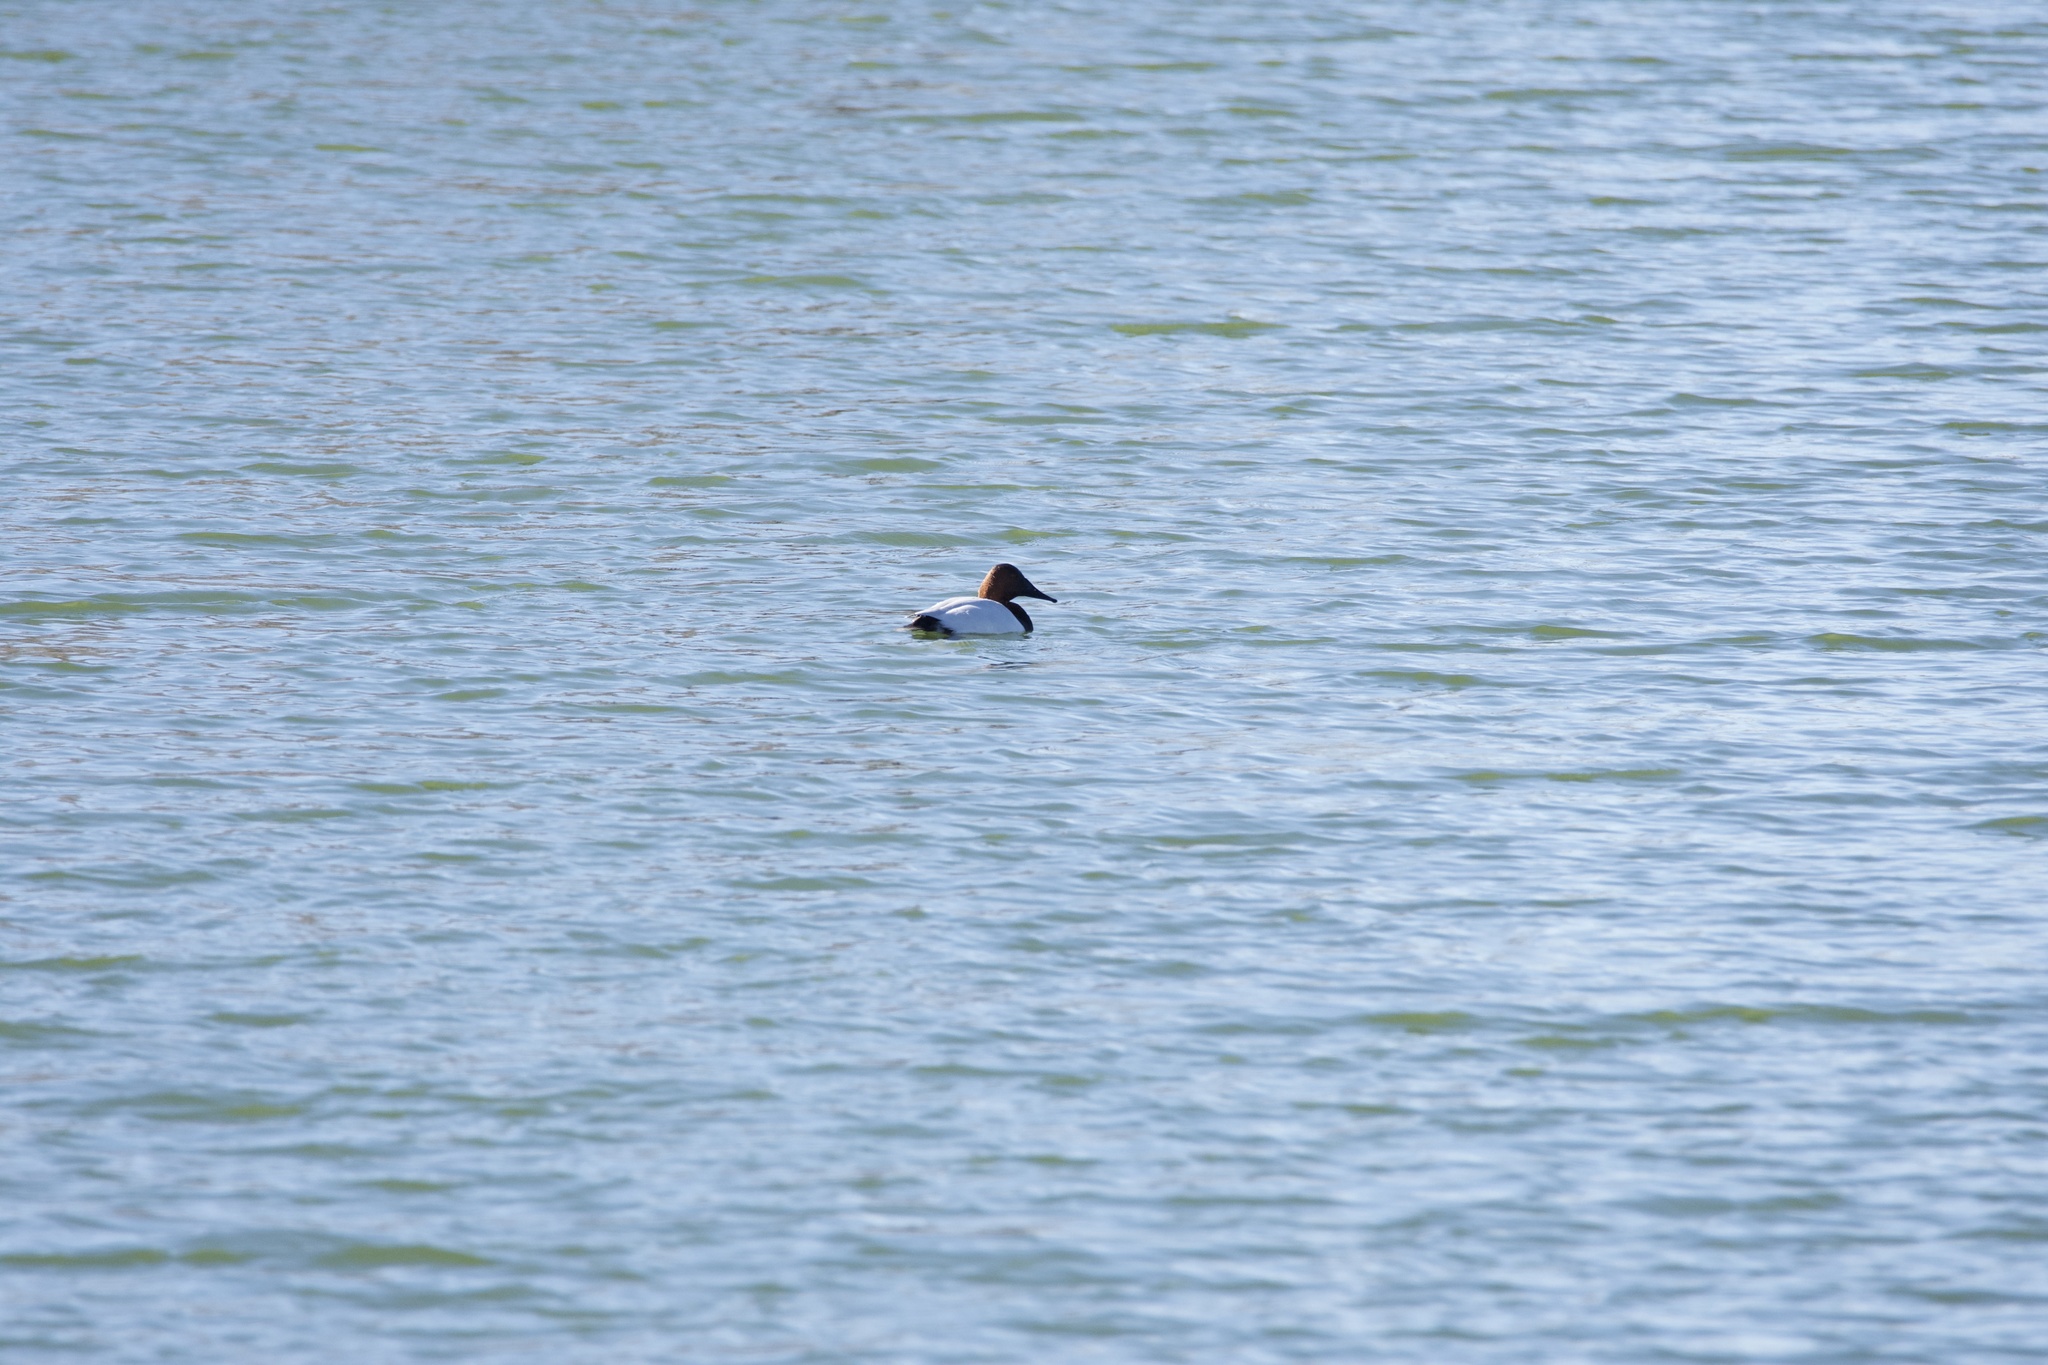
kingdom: Animalia
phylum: Chordata
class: Aves
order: Anseriformes
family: Anatidae
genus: Aythya
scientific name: Aythya valisineria
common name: Canvasback
